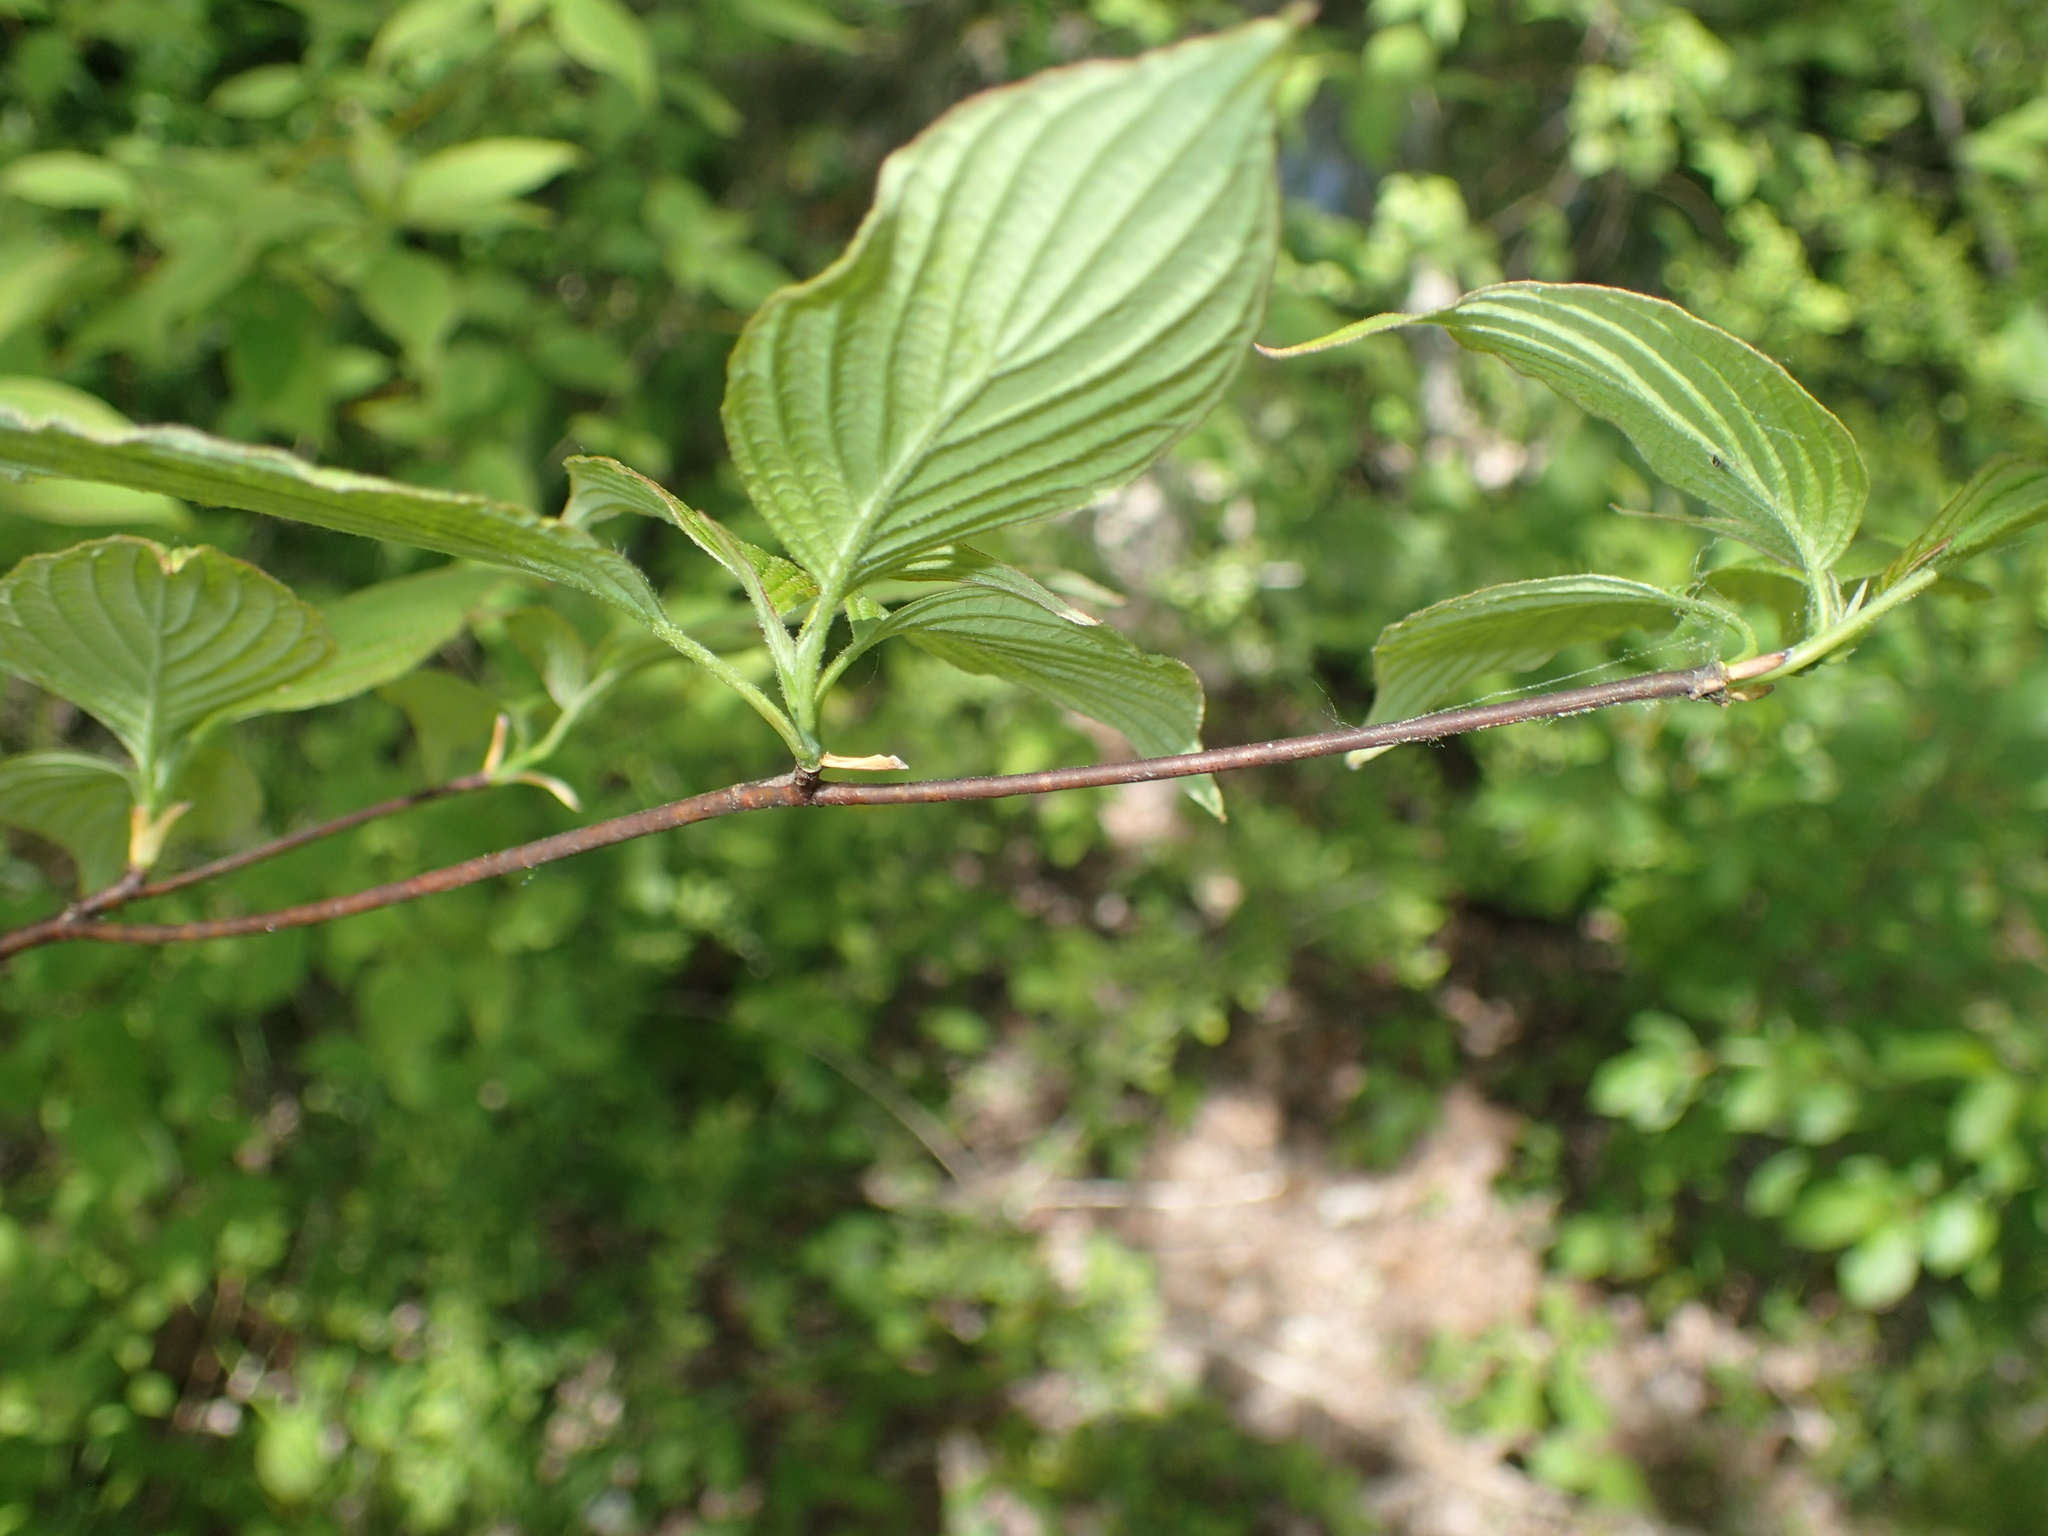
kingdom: Plantae
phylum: Tracheophyta
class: Magnoliopsida
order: Cornales
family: Cornaceae
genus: Cornus
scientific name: Cornus alternifolia
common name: Pagoda dogwood
